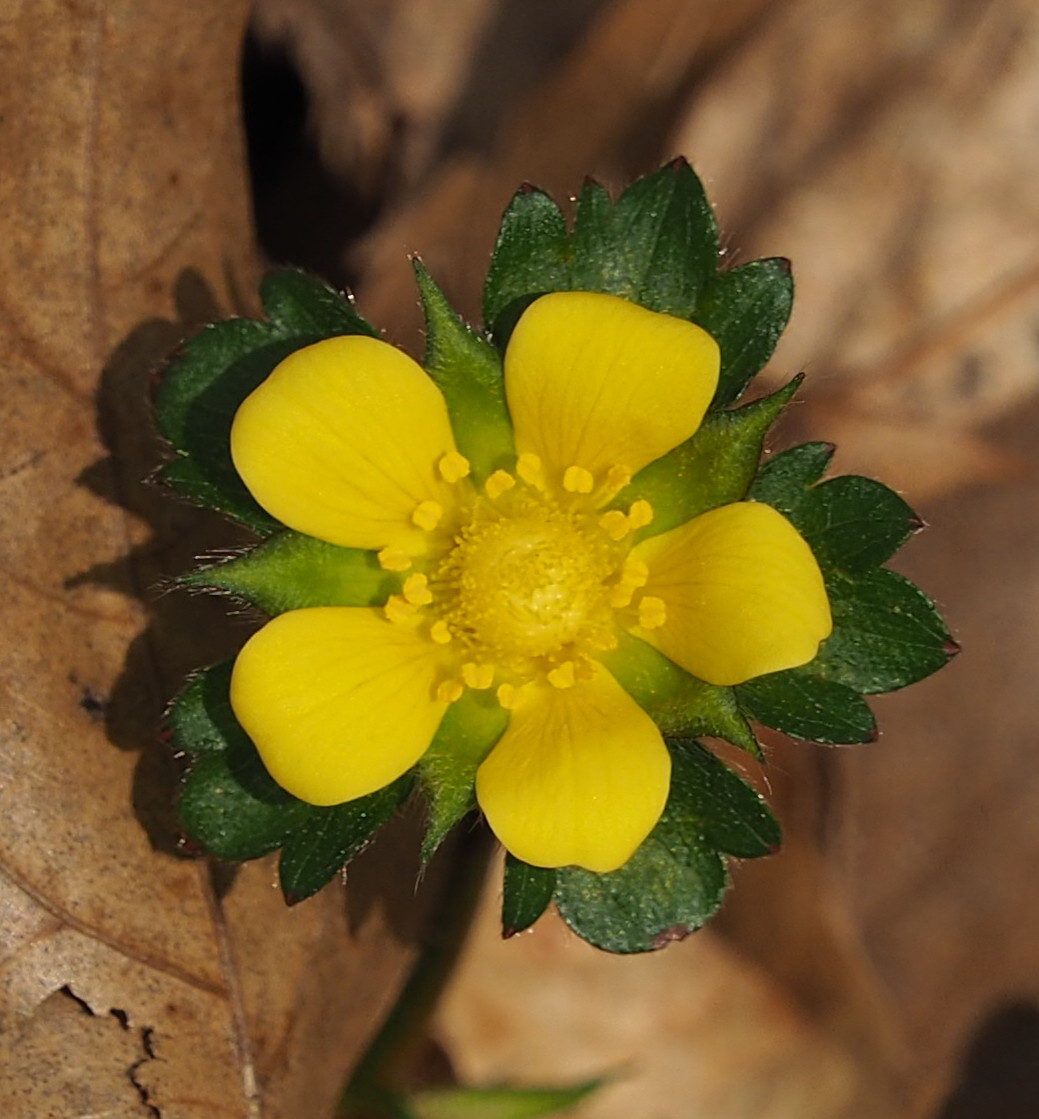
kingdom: Plantae
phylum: Tracheophyta
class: Magnoliopsida
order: Rosales
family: Rosaceae
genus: Potentilla
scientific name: Potentilla indica
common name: Yellow-flowered strawberry
